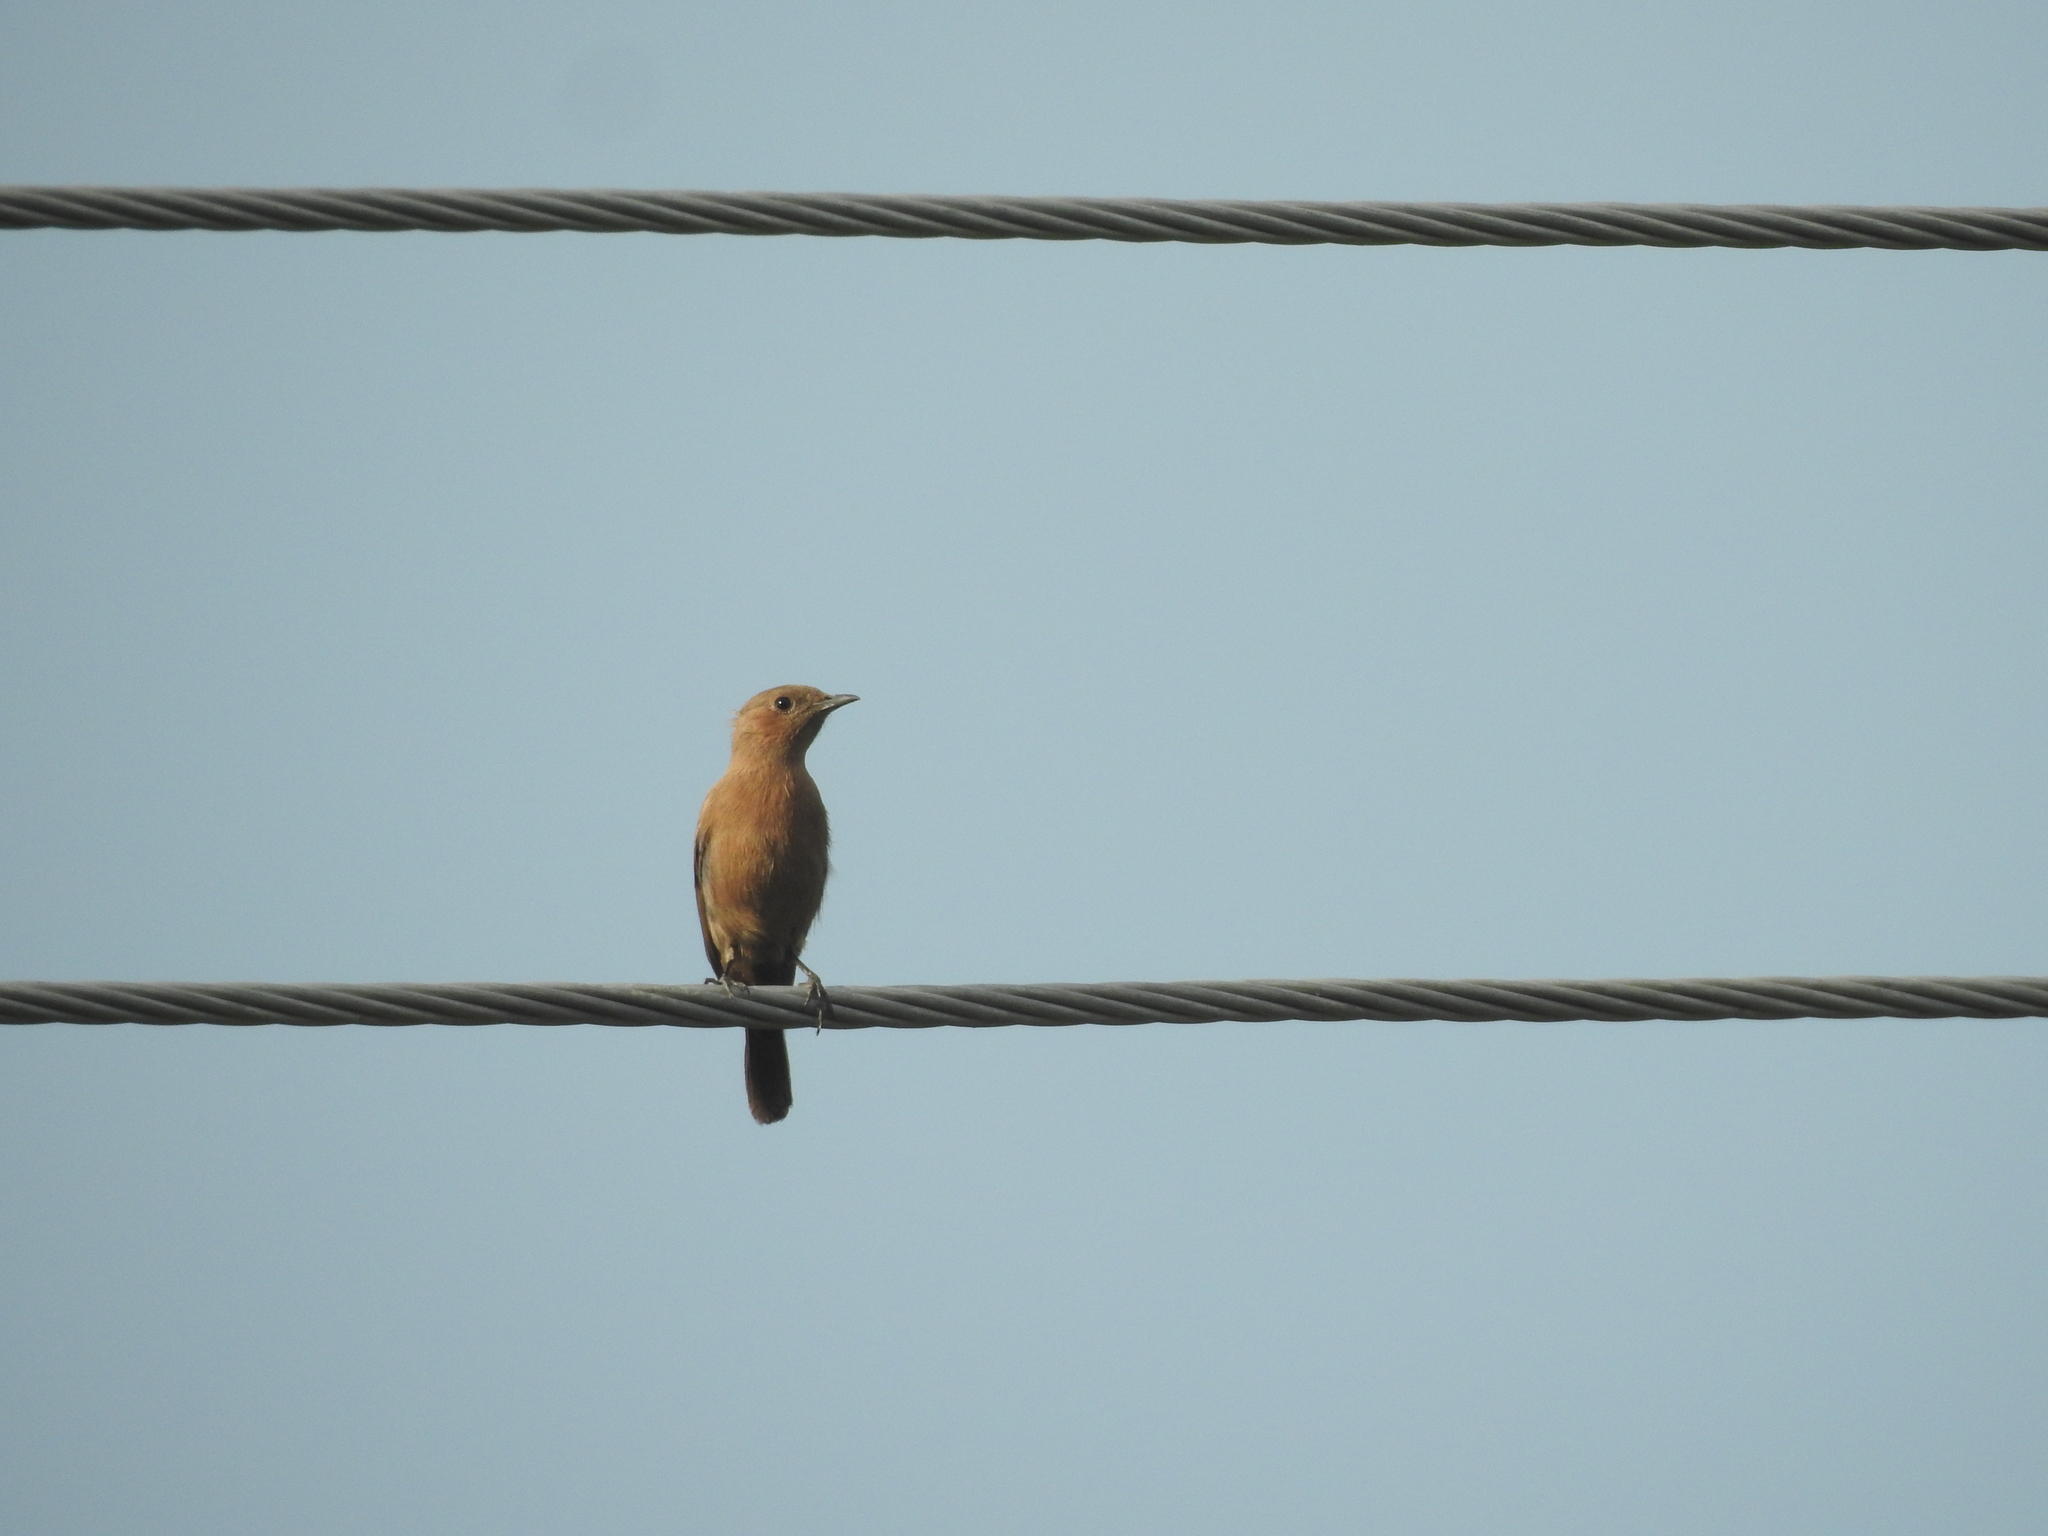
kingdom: Animalia
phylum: Chordata
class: Aves
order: Passeriformes
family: Muscicapidae
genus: Oenanthe
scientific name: Oenanthe fusca
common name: Brown rock chat
